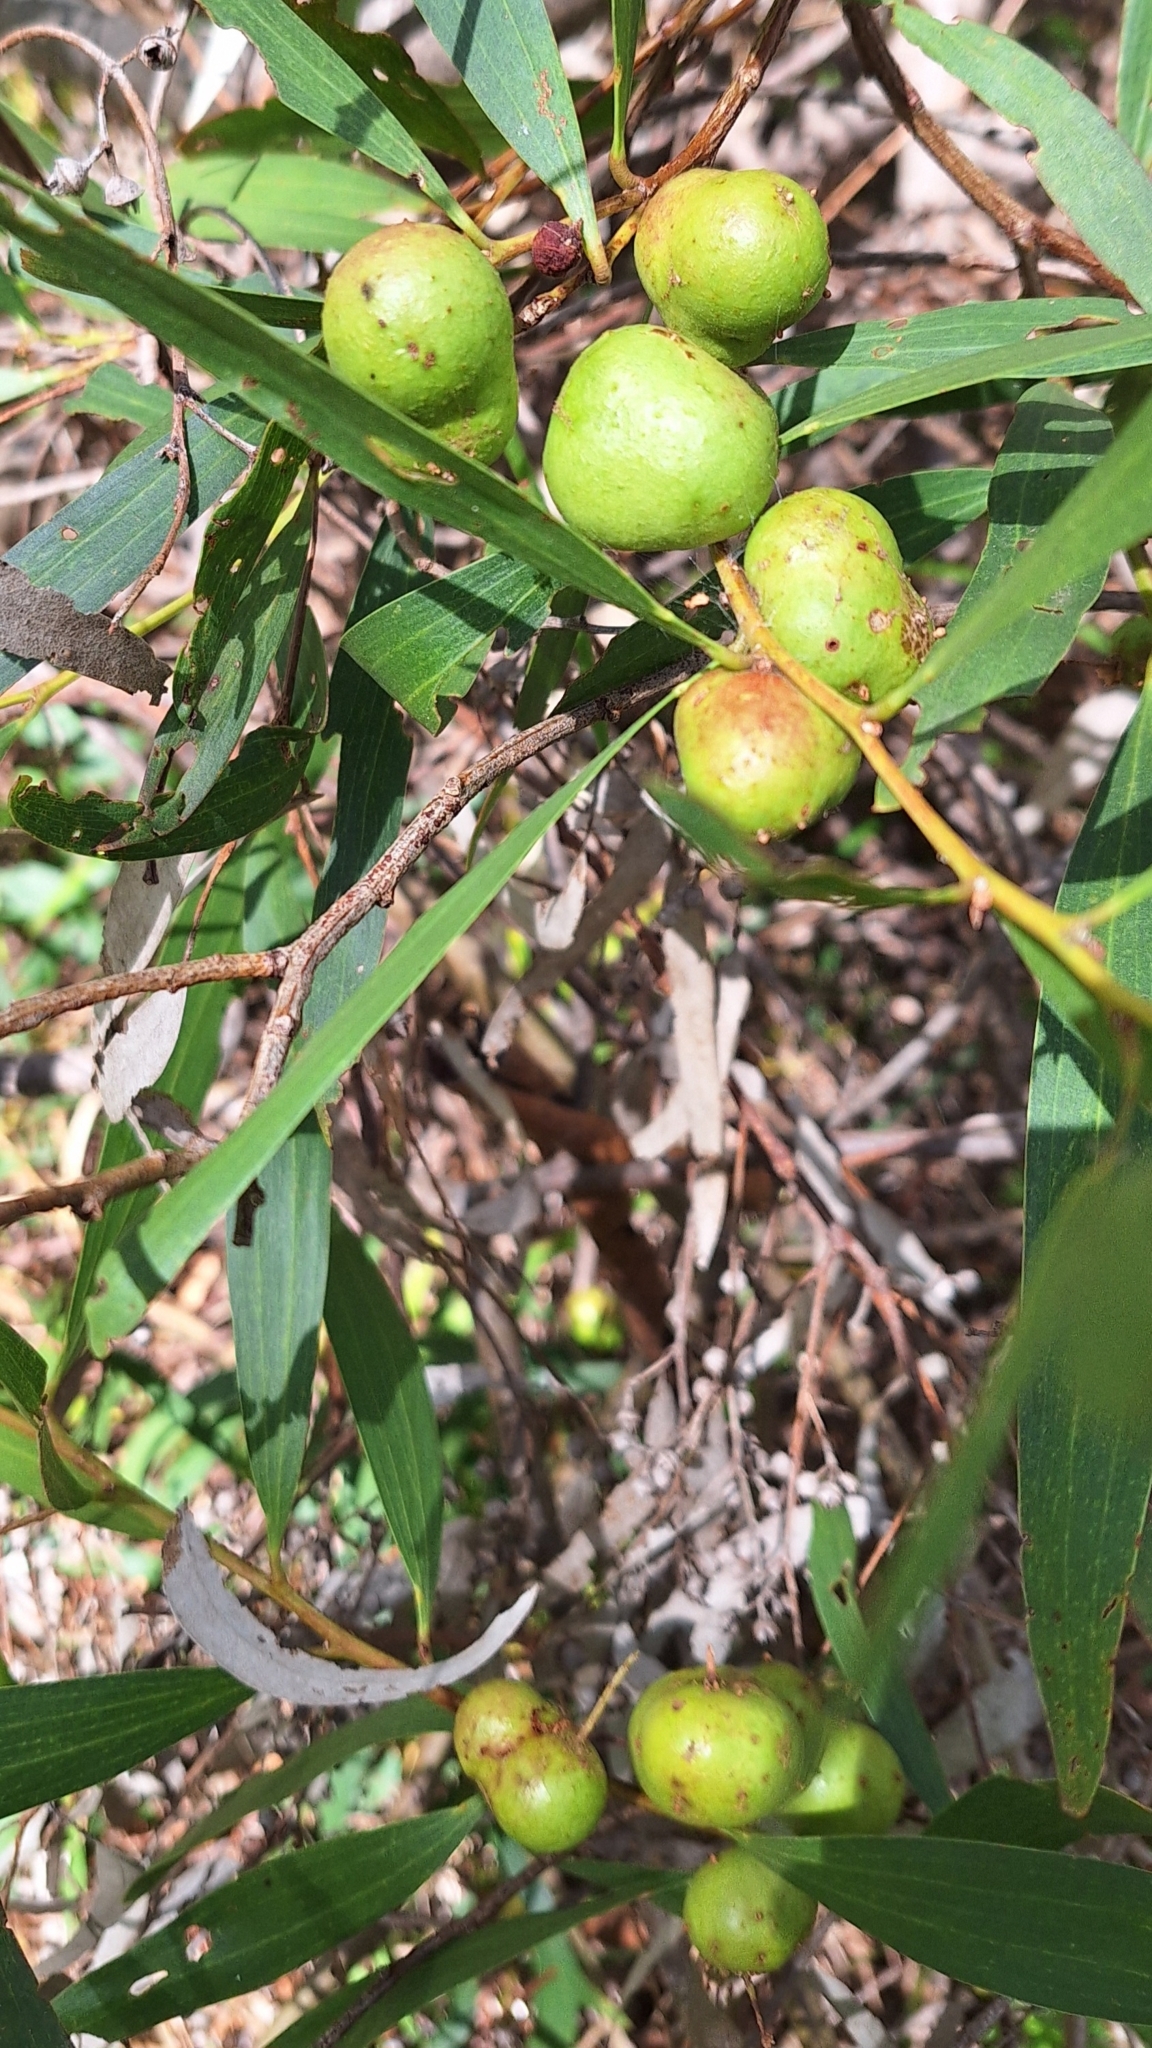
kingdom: Animalia
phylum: Arthropoda
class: Insecta
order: Hymenoptera
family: Pteromalidae
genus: Trichilogaster
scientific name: Trichilogaster acaciaelongifoliae
